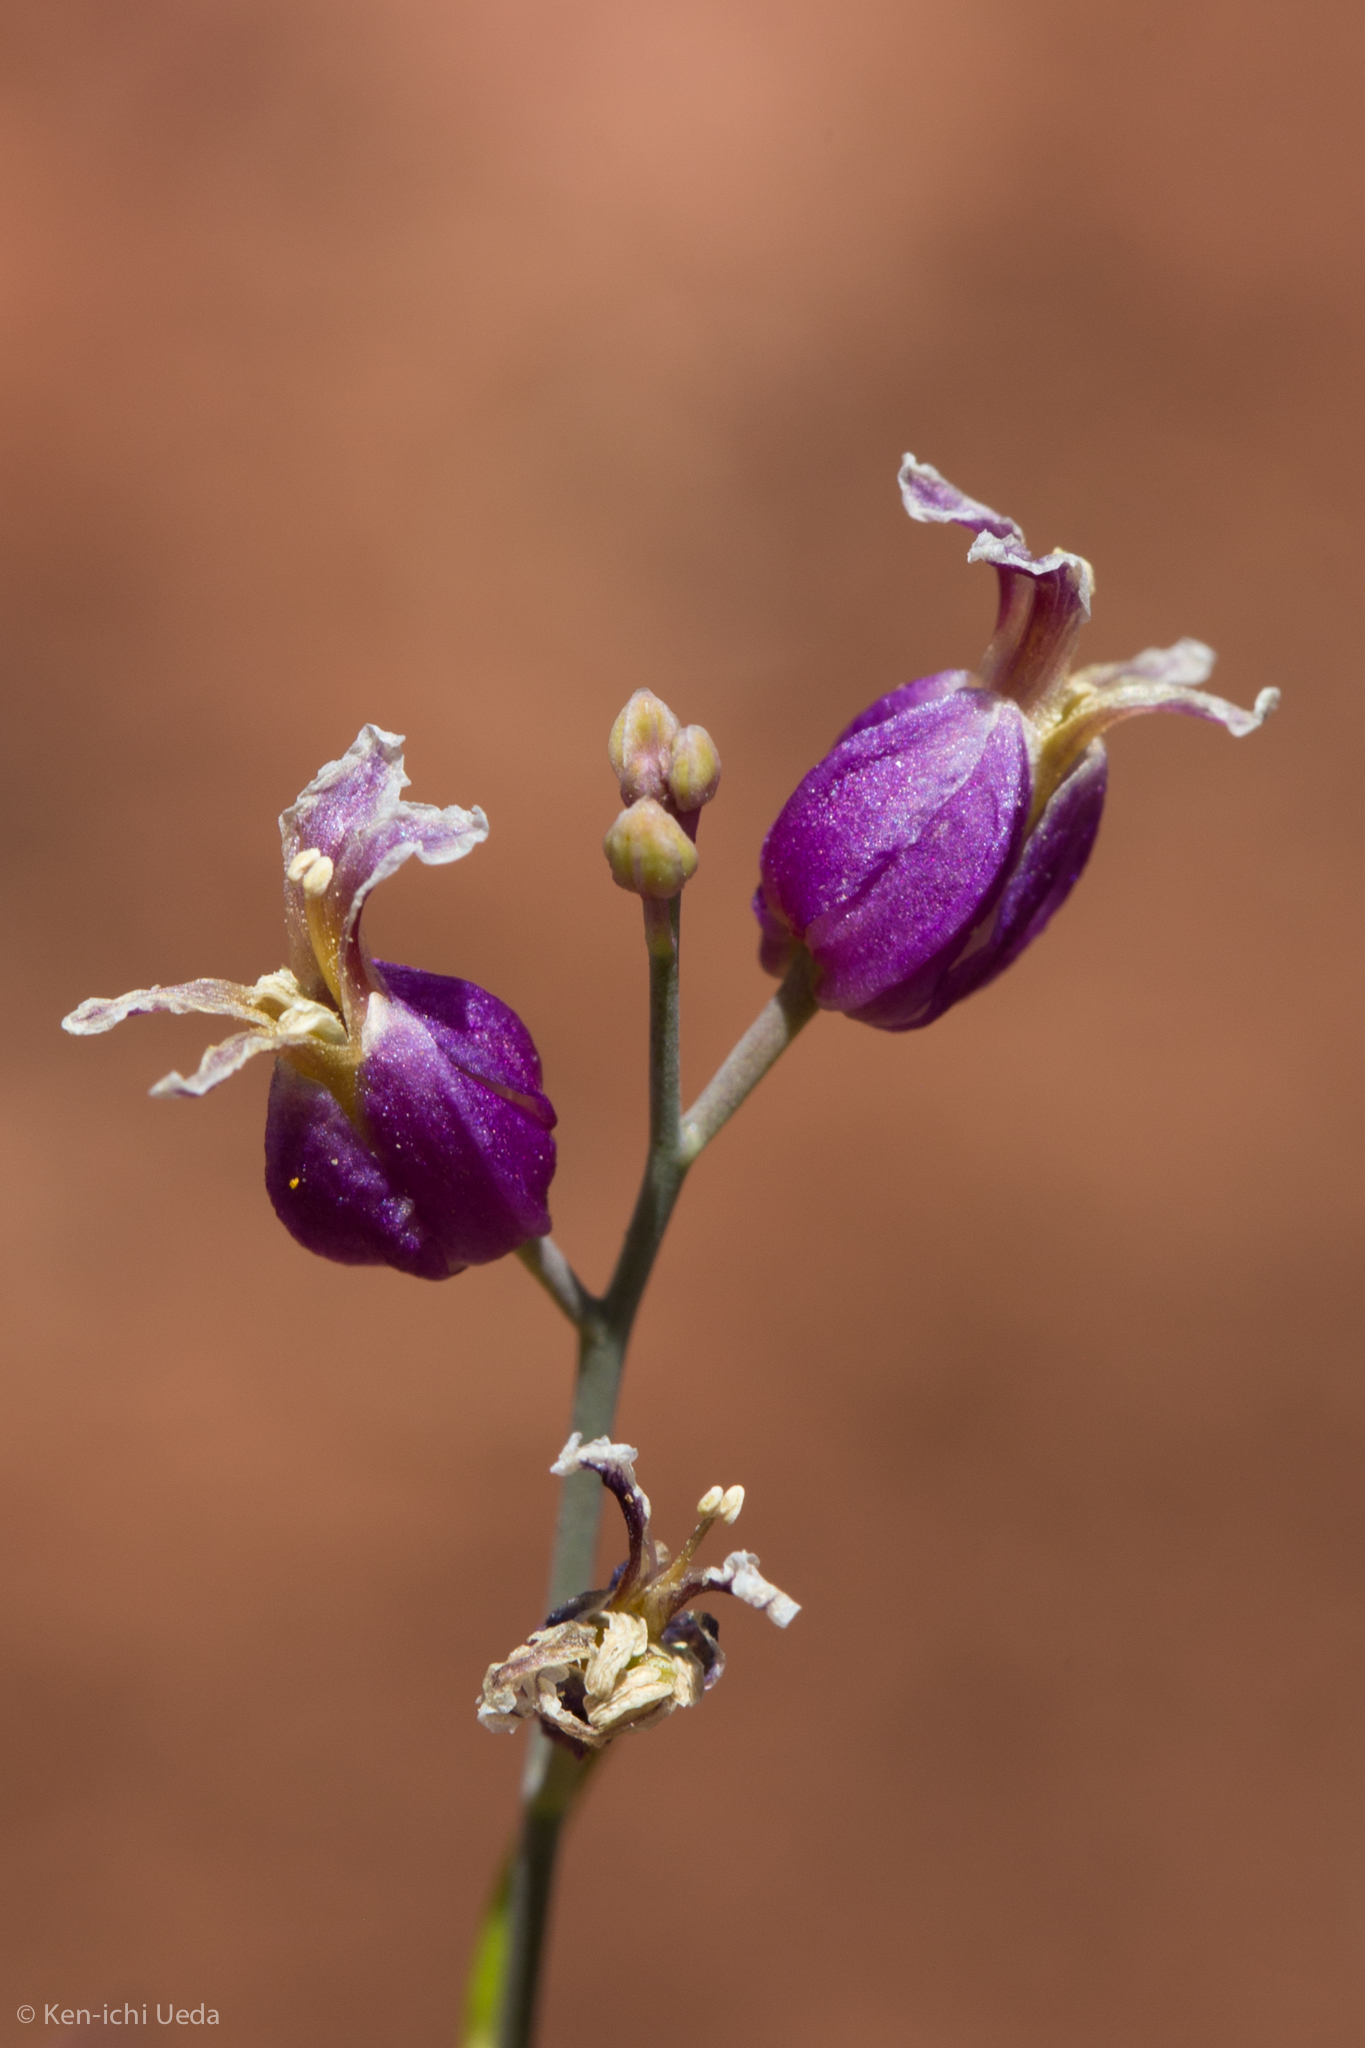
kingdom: Plantae
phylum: Tracheophyta
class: Magnoliopsida
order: Brassicales
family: Brassicaceae
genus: Streptanthus
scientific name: Streptanthus glandulosus
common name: Jewel-flower
